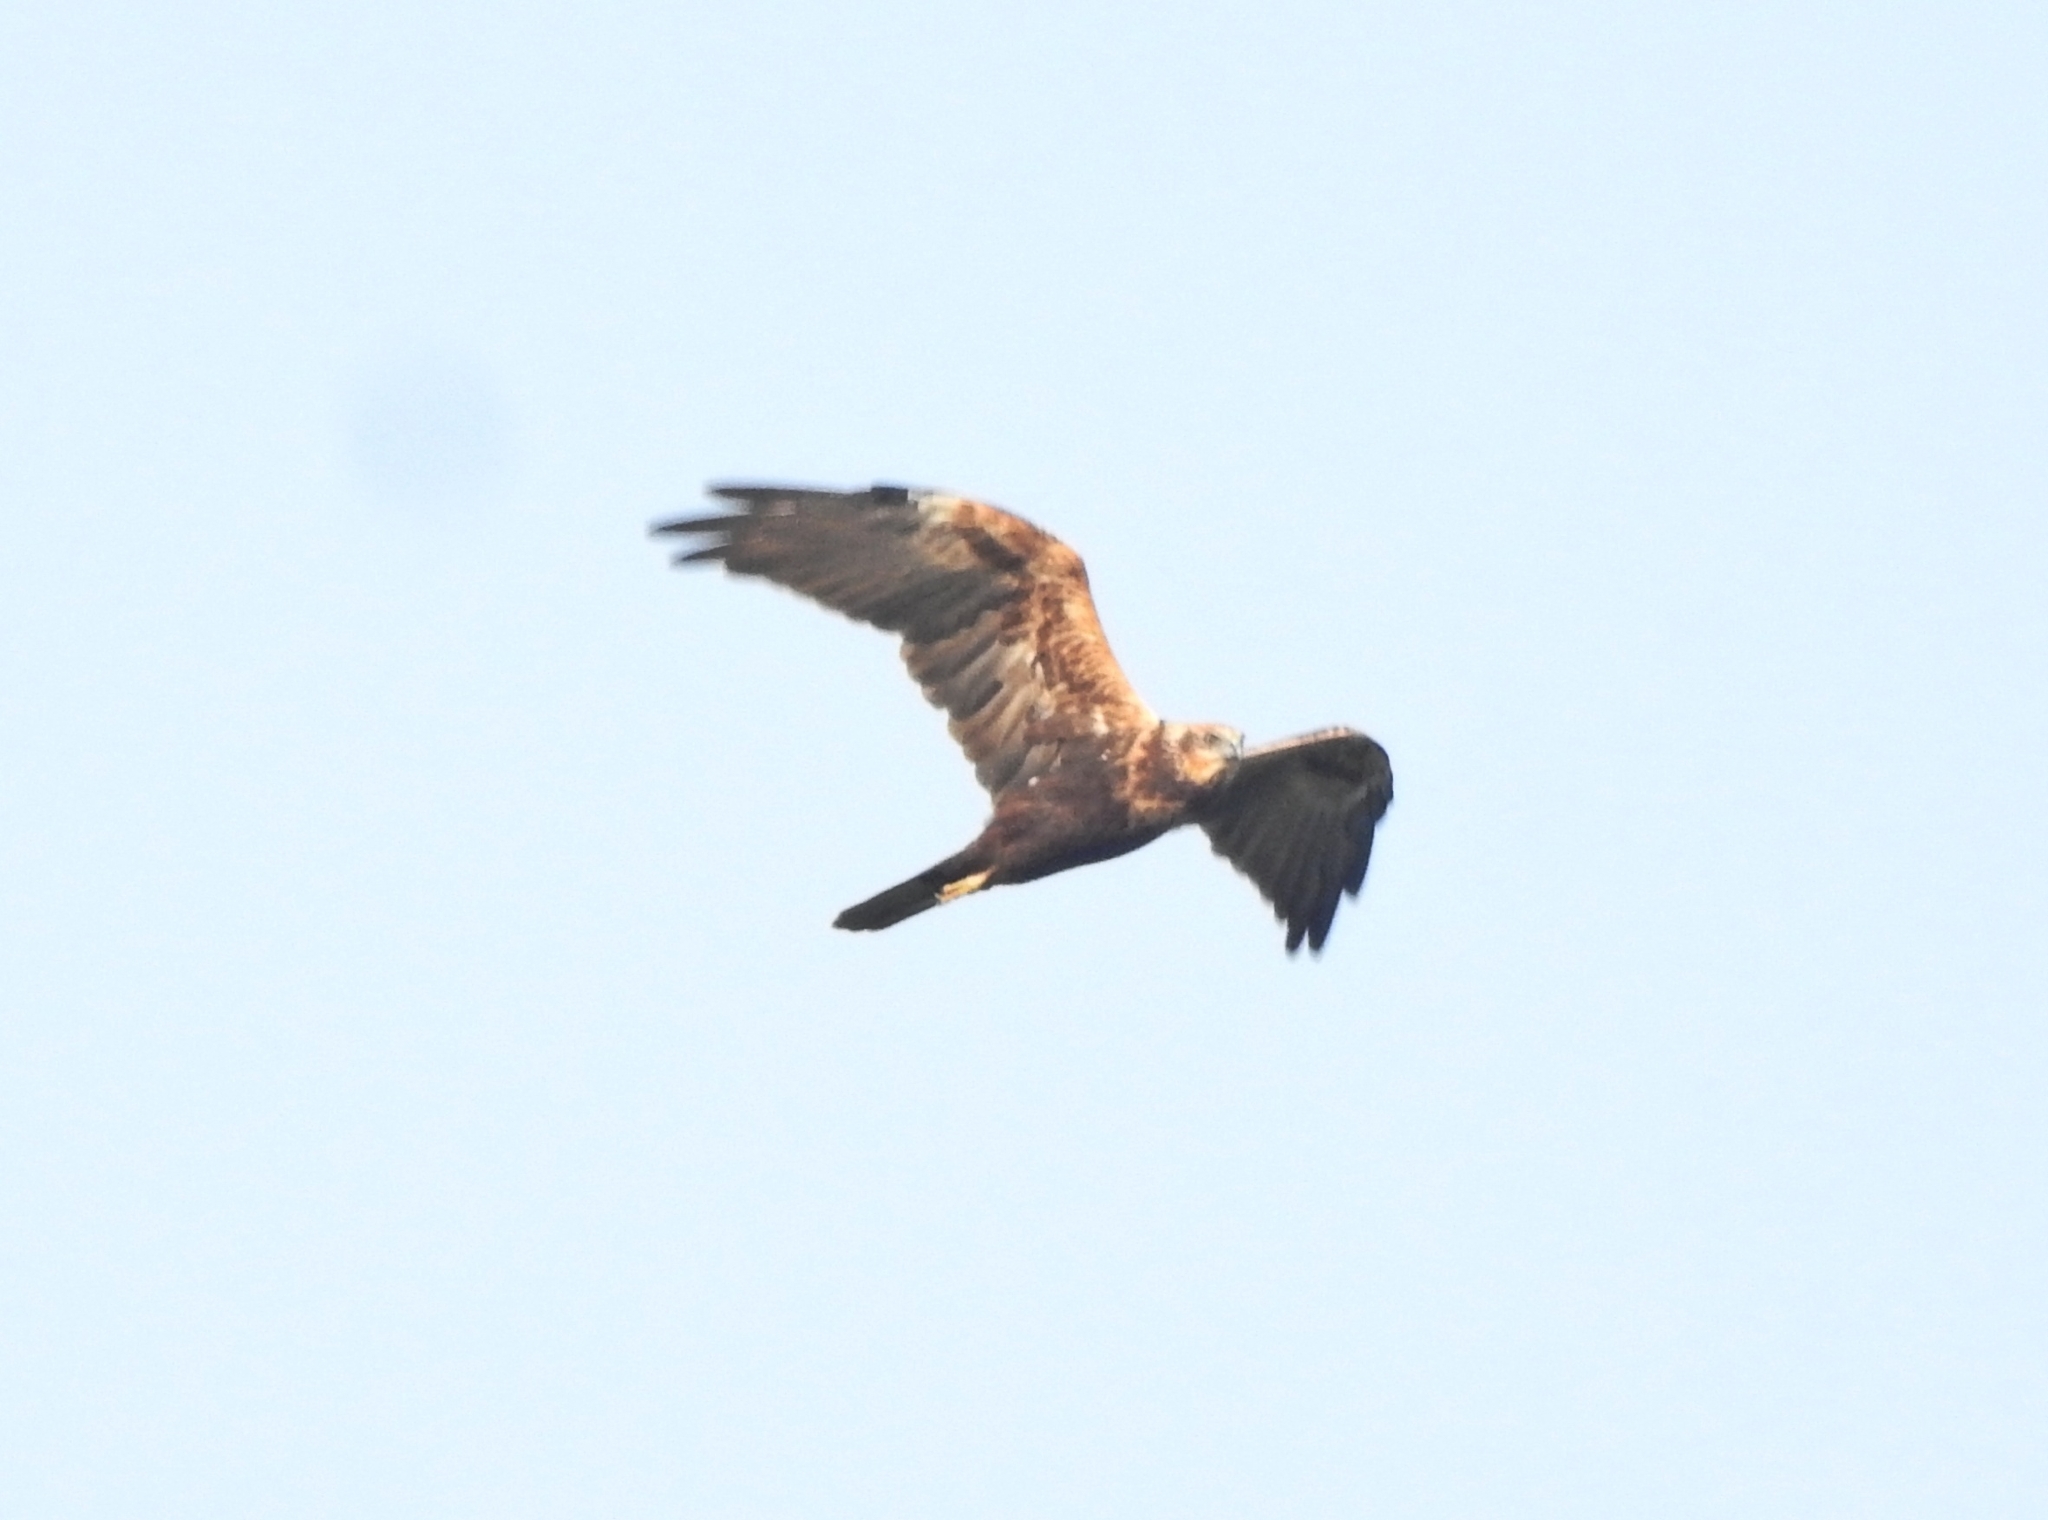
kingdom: Animalia
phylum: Chordata
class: Aves
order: Accipitriformes
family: Accipitridae
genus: Circus
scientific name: Circus aeruginosus
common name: Western marsh harrier
